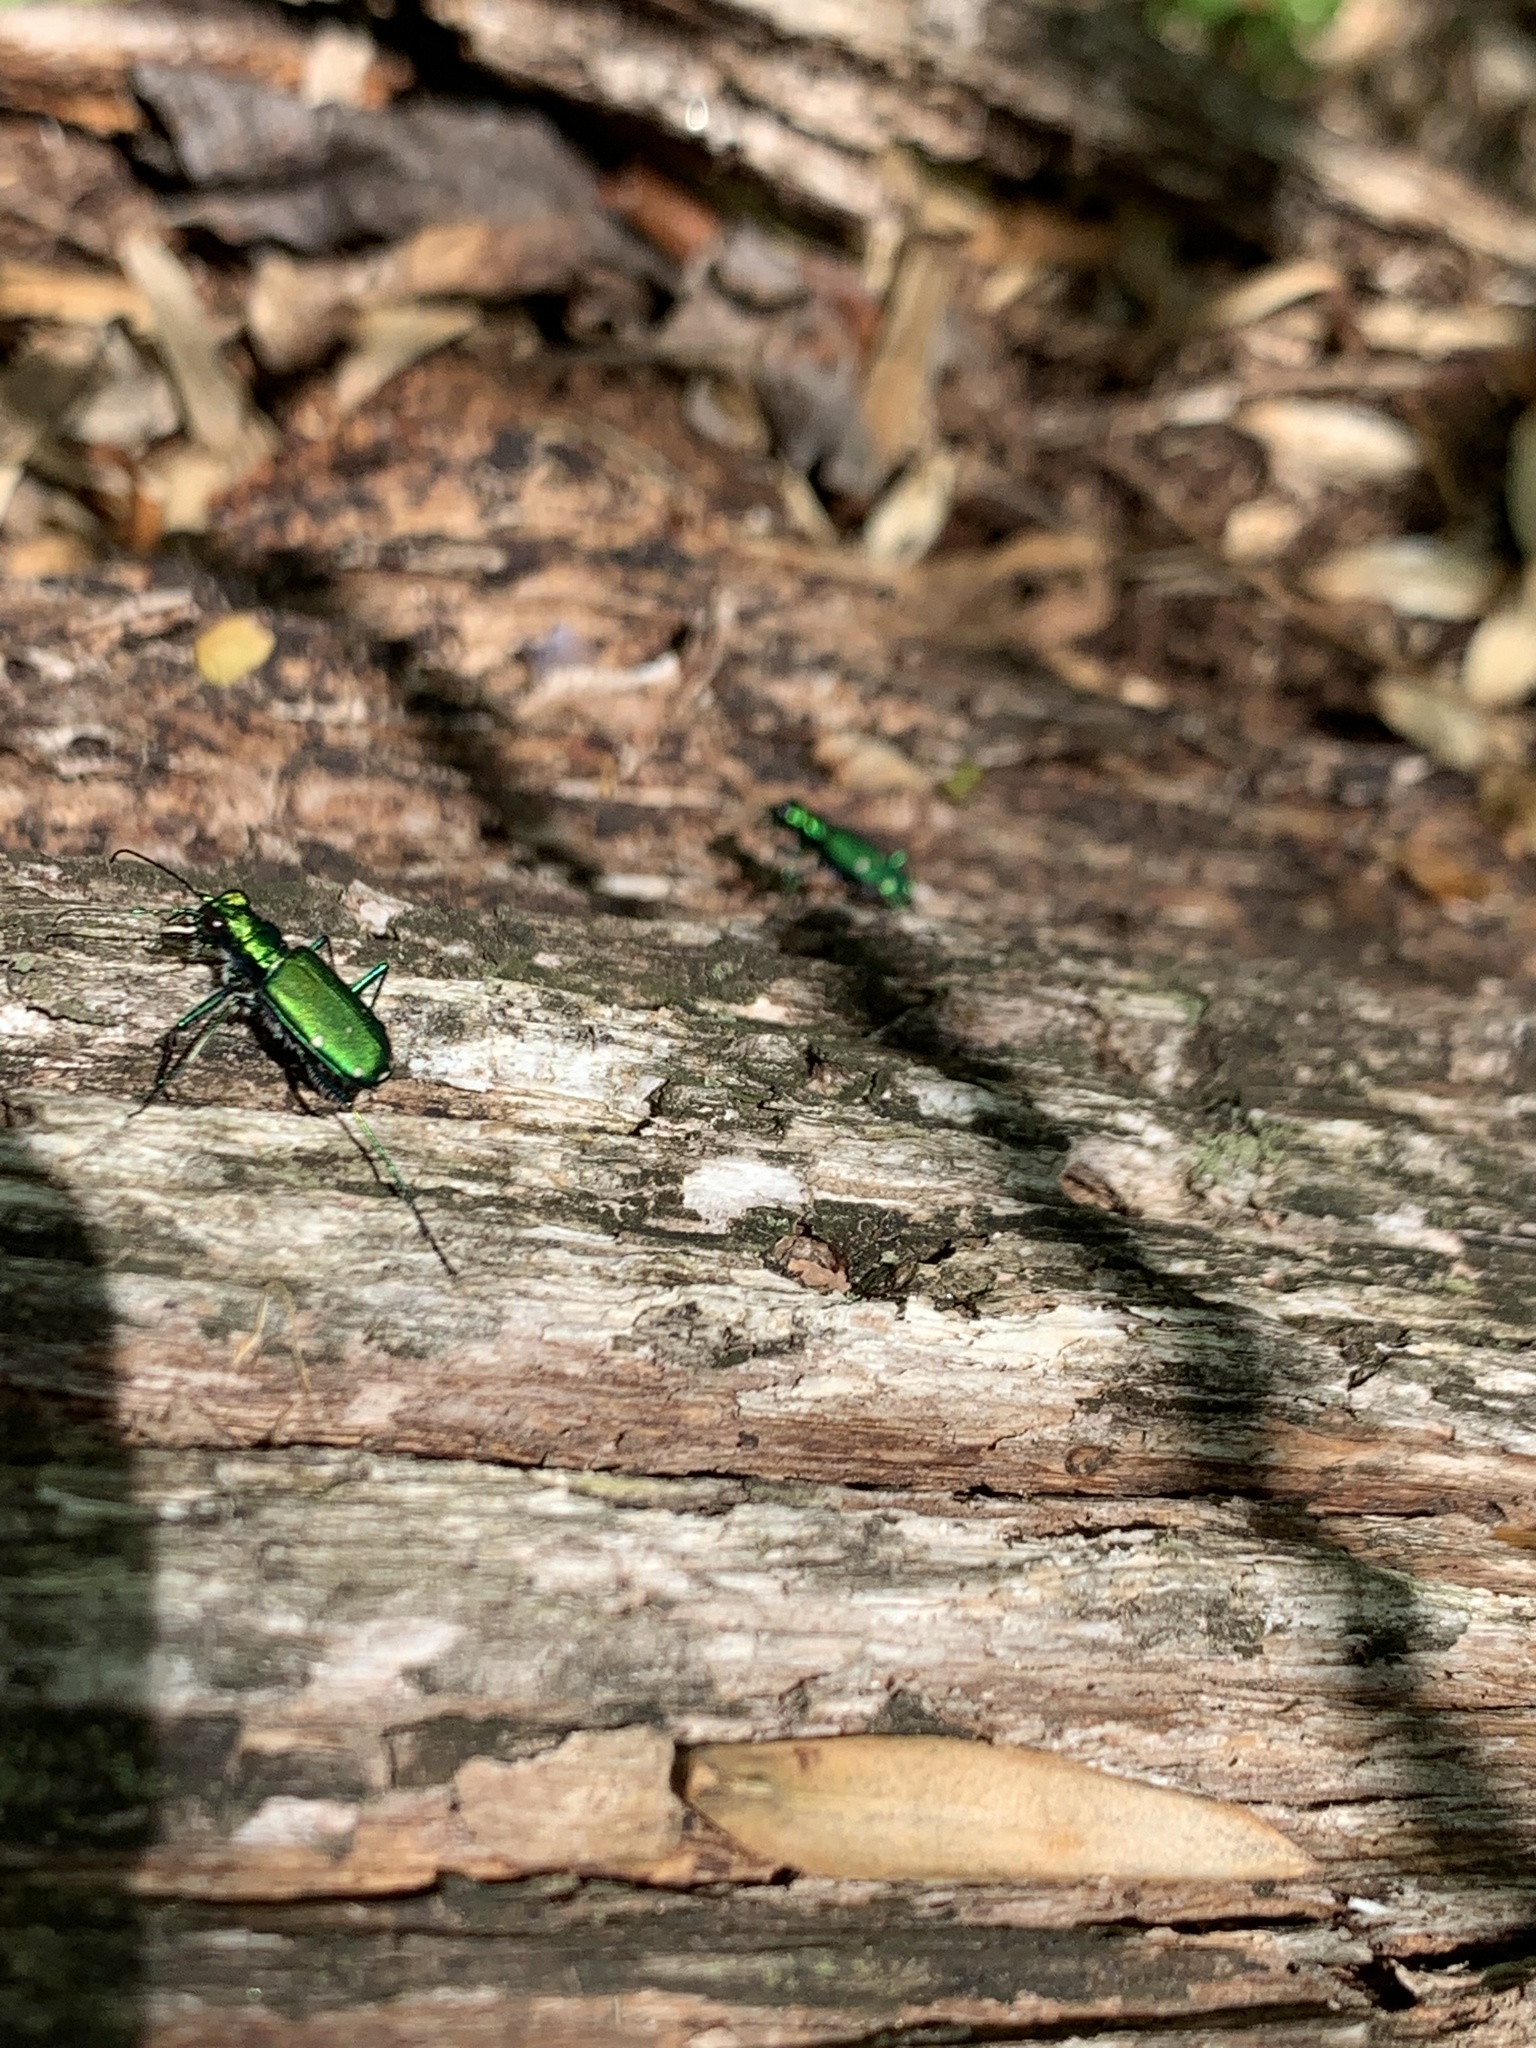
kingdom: Animalia
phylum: Arthropoda
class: Insecta
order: Coleoptera
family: Carabidae
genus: Cicindela
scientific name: Cicindela sexguttata
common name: Six-spotted tiger beetle
